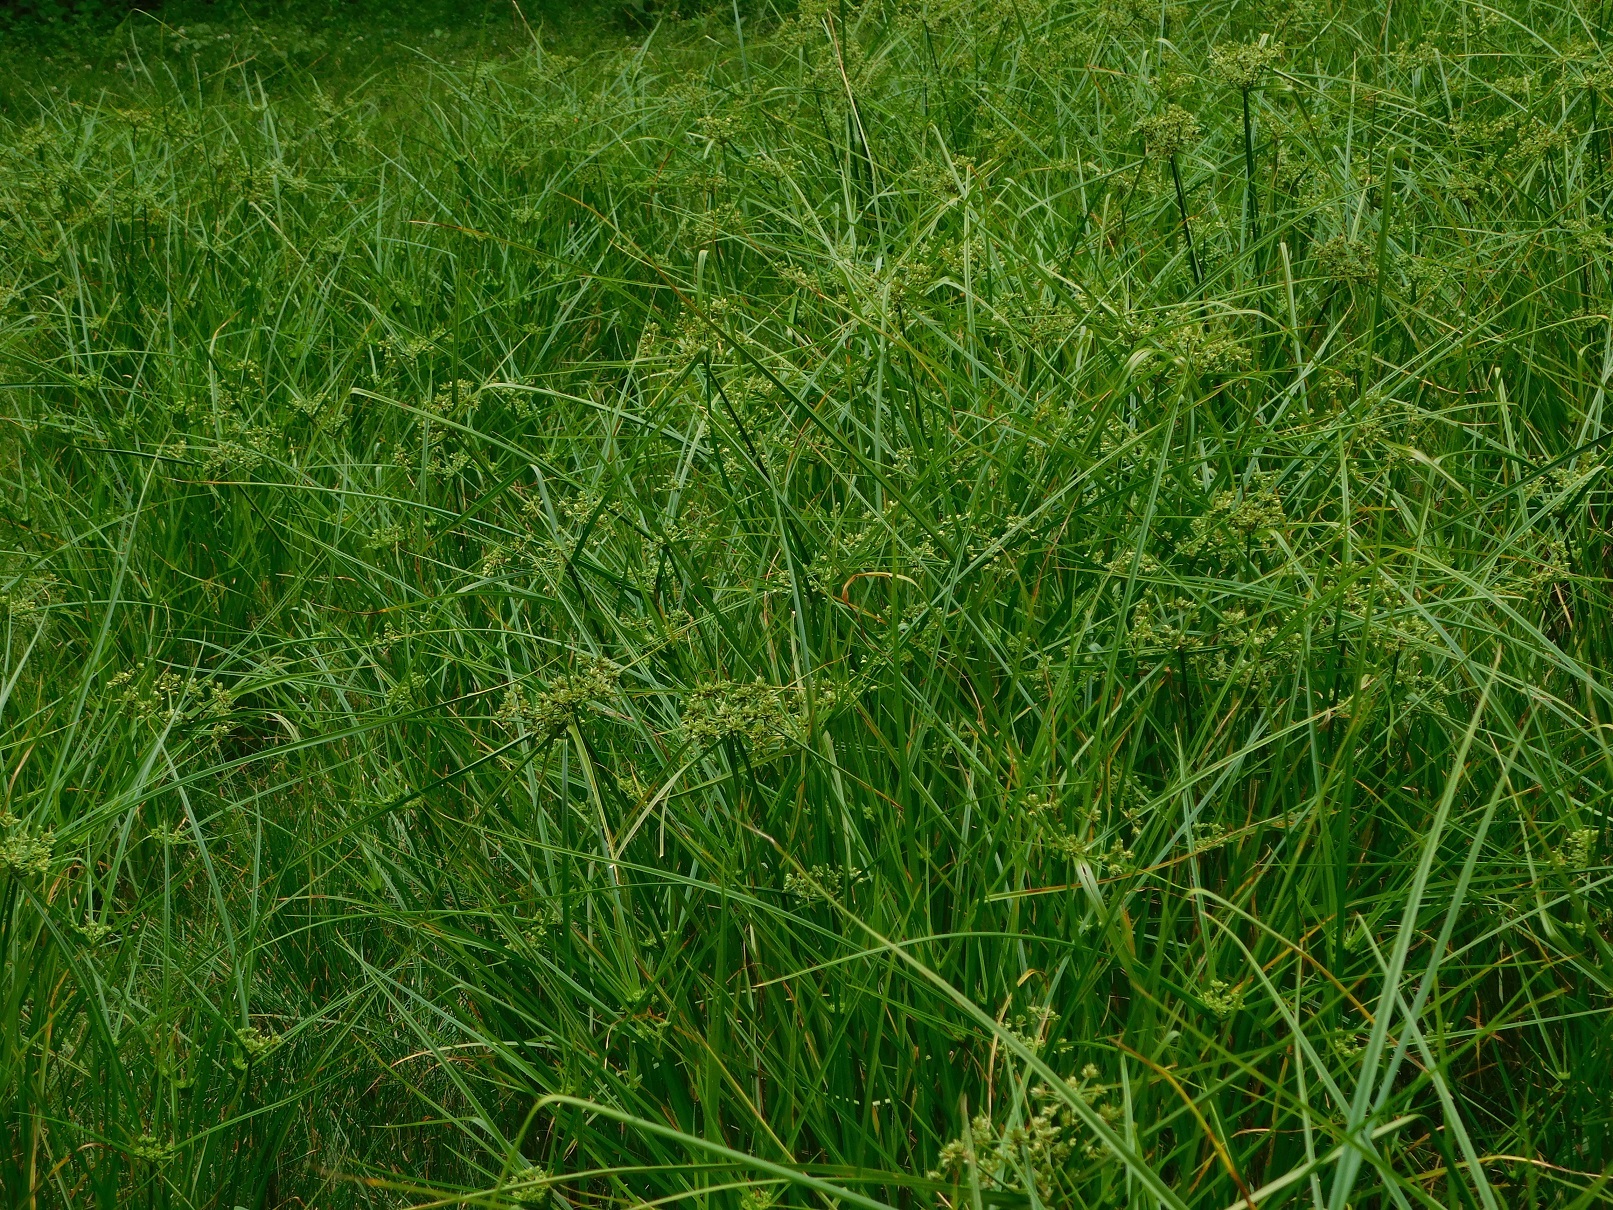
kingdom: Plantae
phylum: Tracheophyta
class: Liliopsida
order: Poales
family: Cyperaceae
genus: Cyperus
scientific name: Cyperus virens
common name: Green flatsedge
